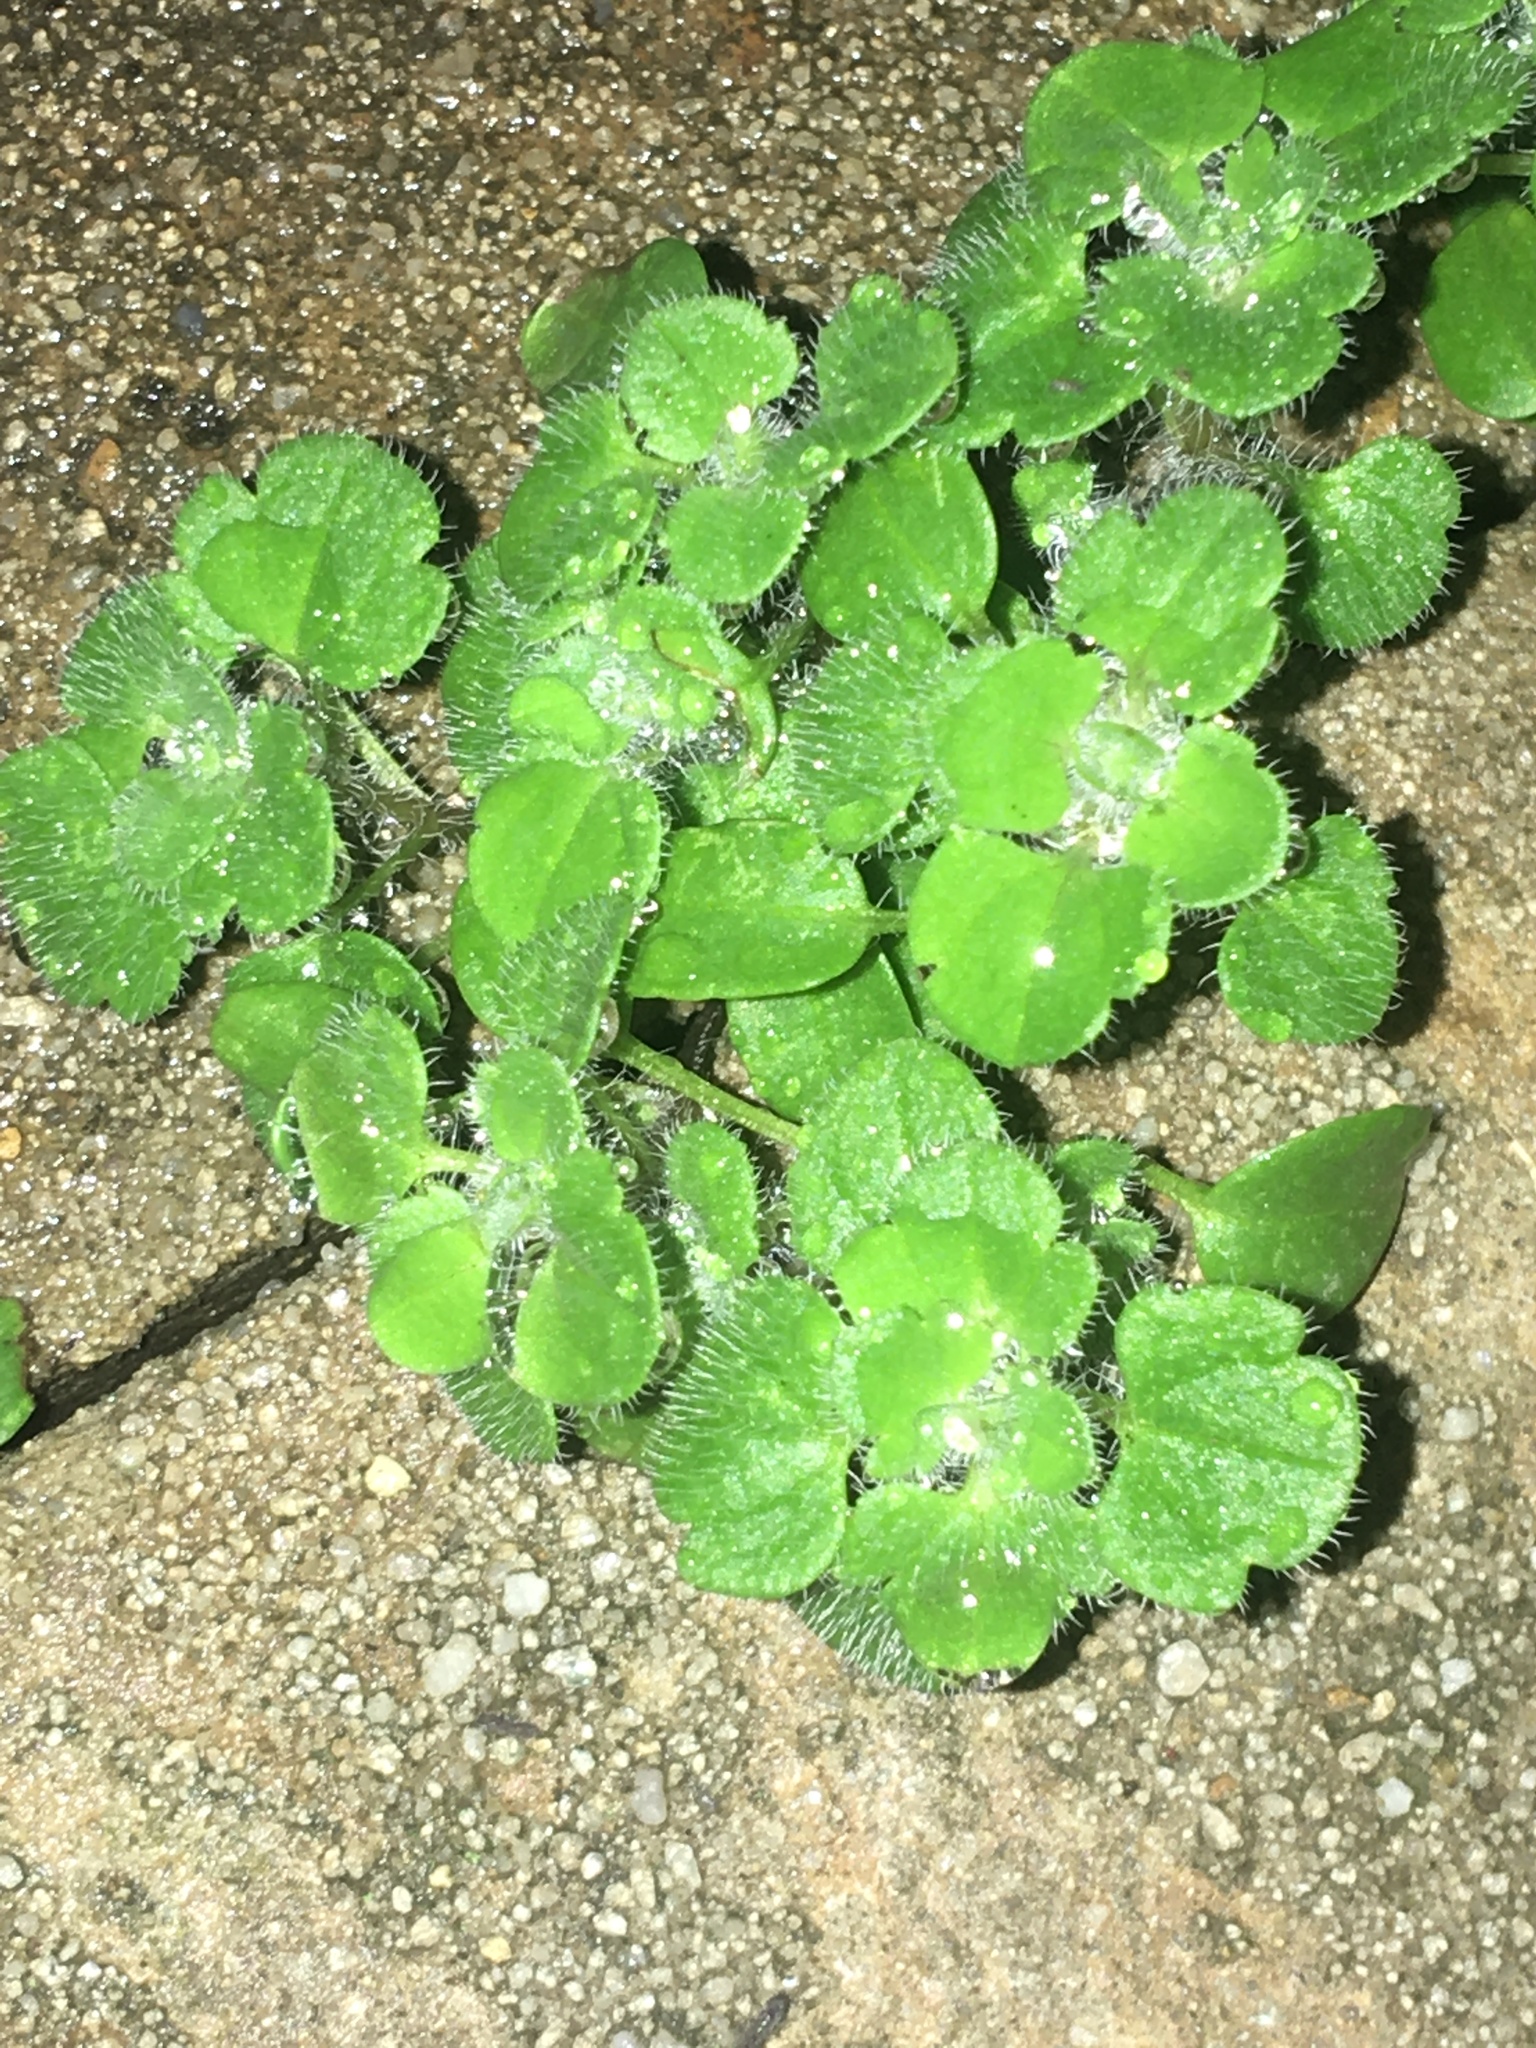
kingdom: Plantae
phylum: Tracheophyta
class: Magnoliopsida
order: Lamiales
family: Plantaginaceae
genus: Veronica
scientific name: Veronica hederifolia
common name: Ivy-leaved speedwell
